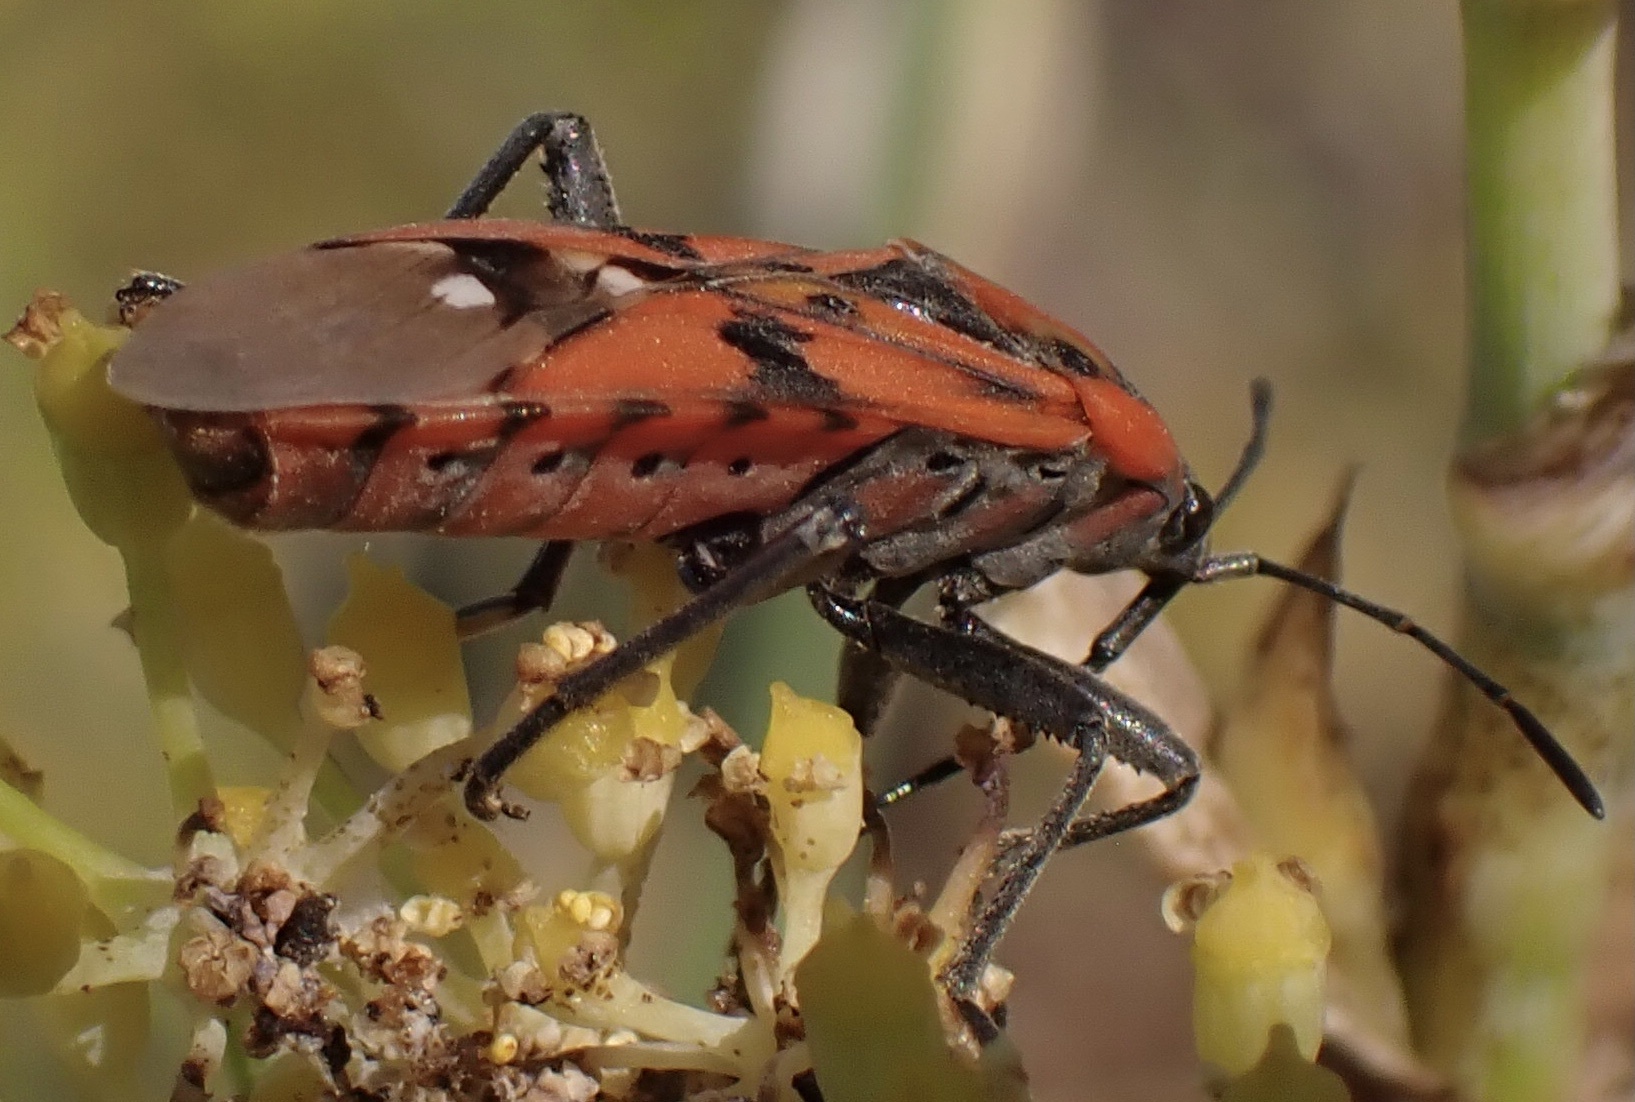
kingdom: Animalia
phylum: Arthropoda
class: Insecta
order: Hemiptera
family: Lygaeidae
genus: Spilostethus
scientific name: Spilostethus pandurus
